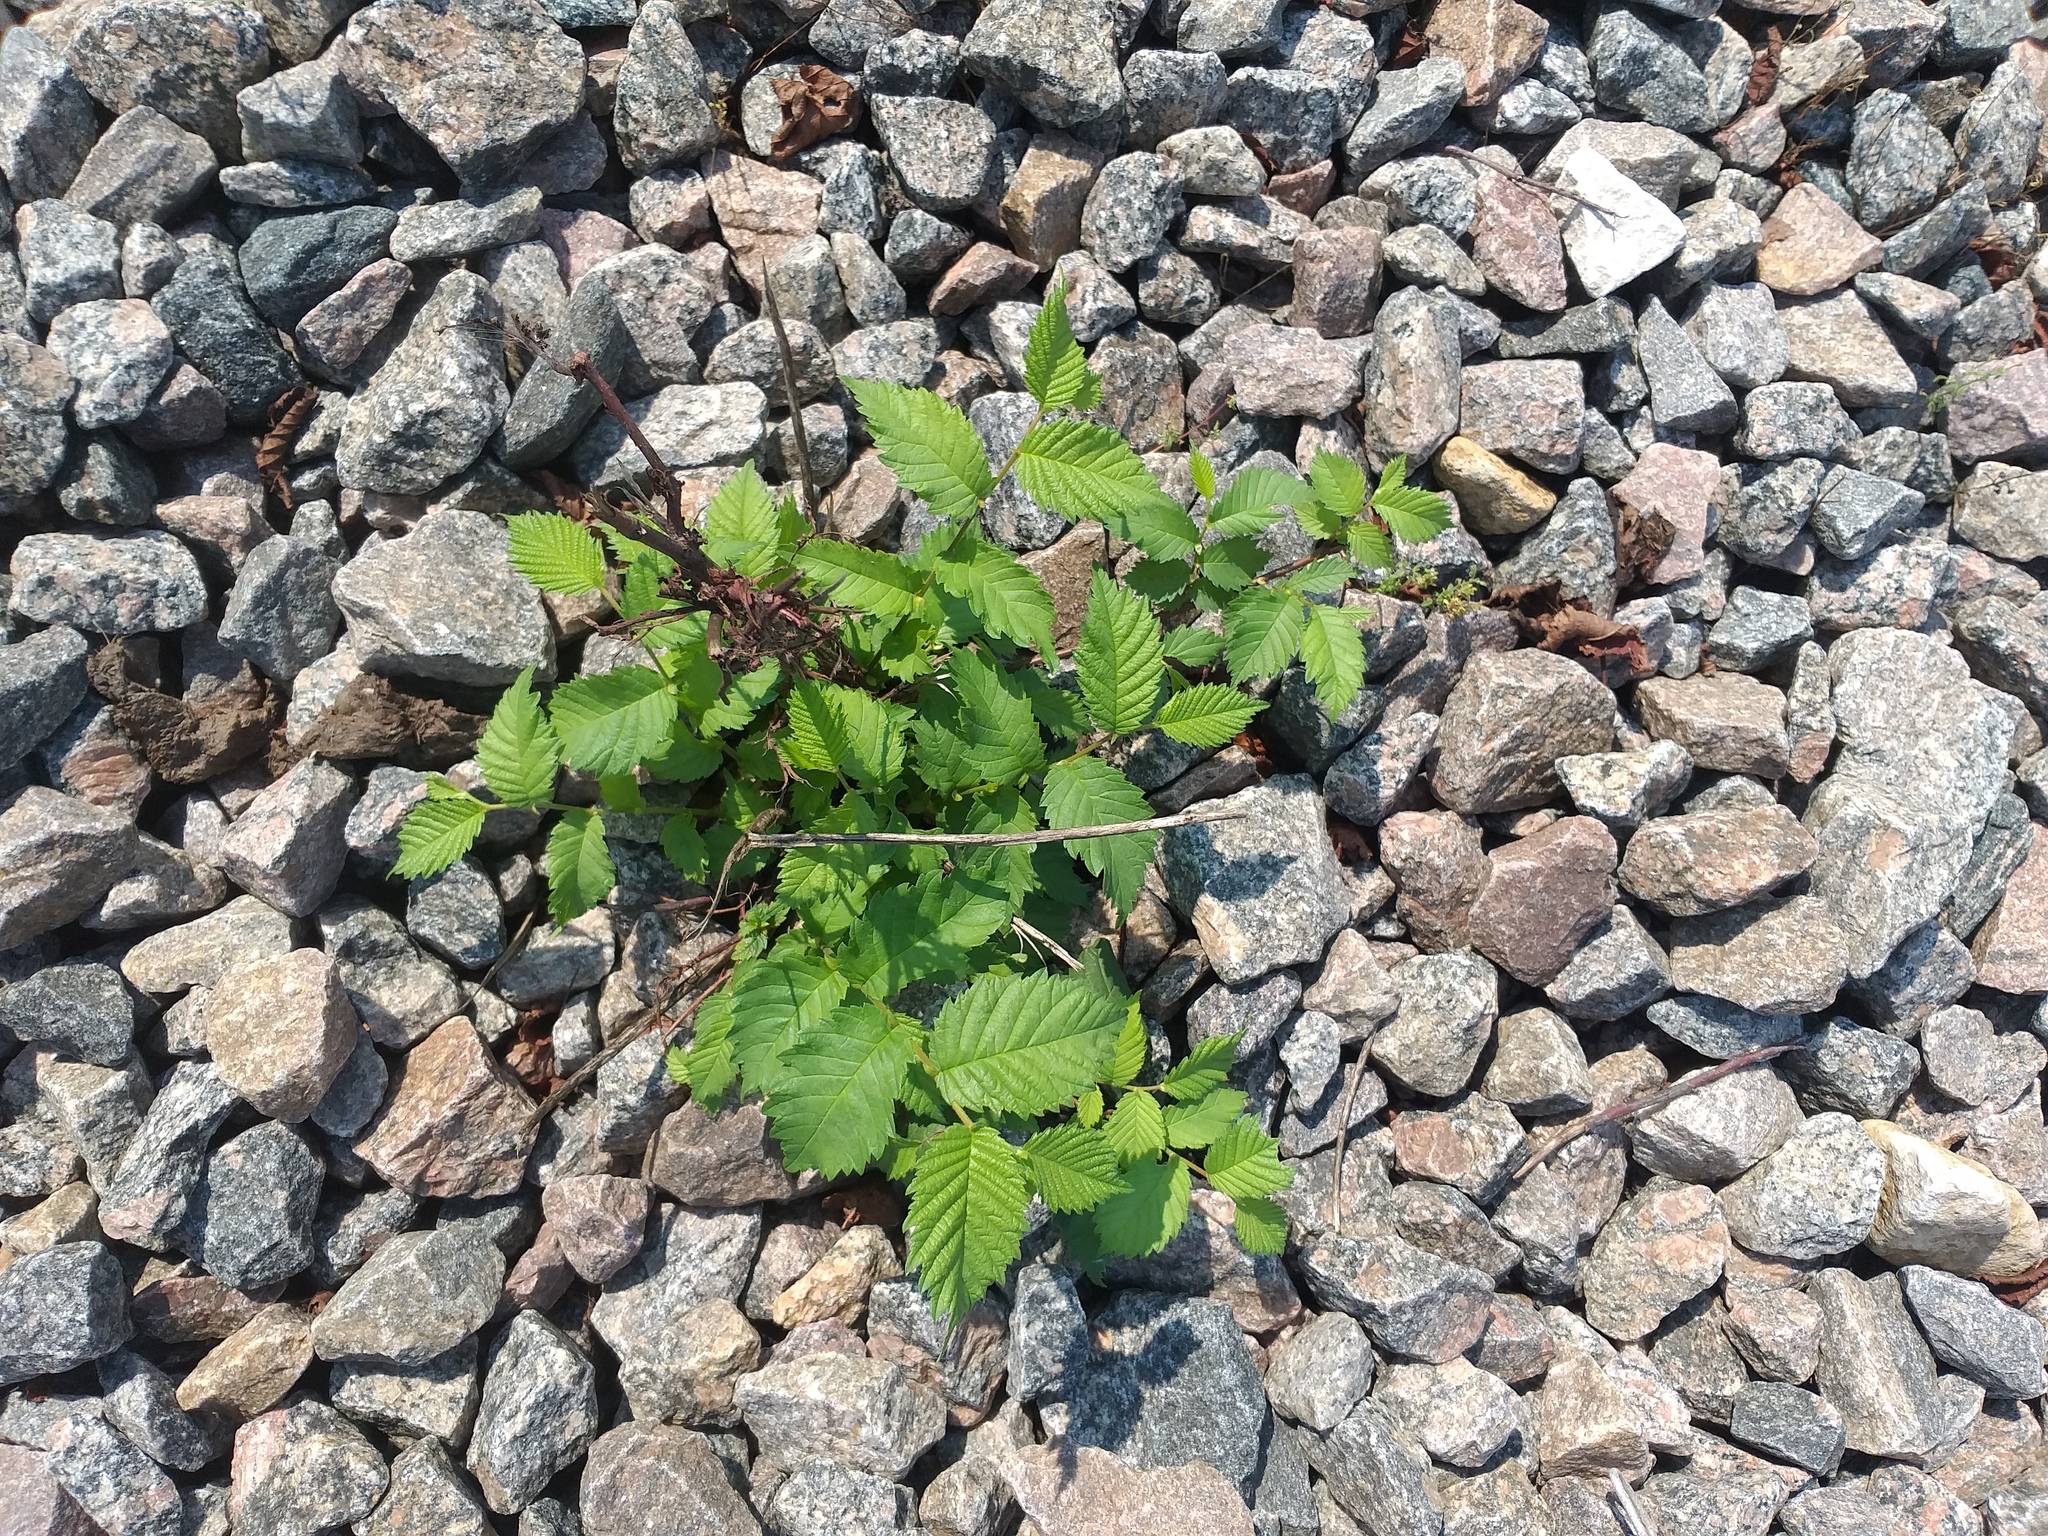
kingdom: Plantae
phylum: Tracheophyta
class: Magnoliopsida
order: Rosales
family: Ulmaceae
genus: Ulmus
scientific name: Ulmus laevis
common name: European white-elm
